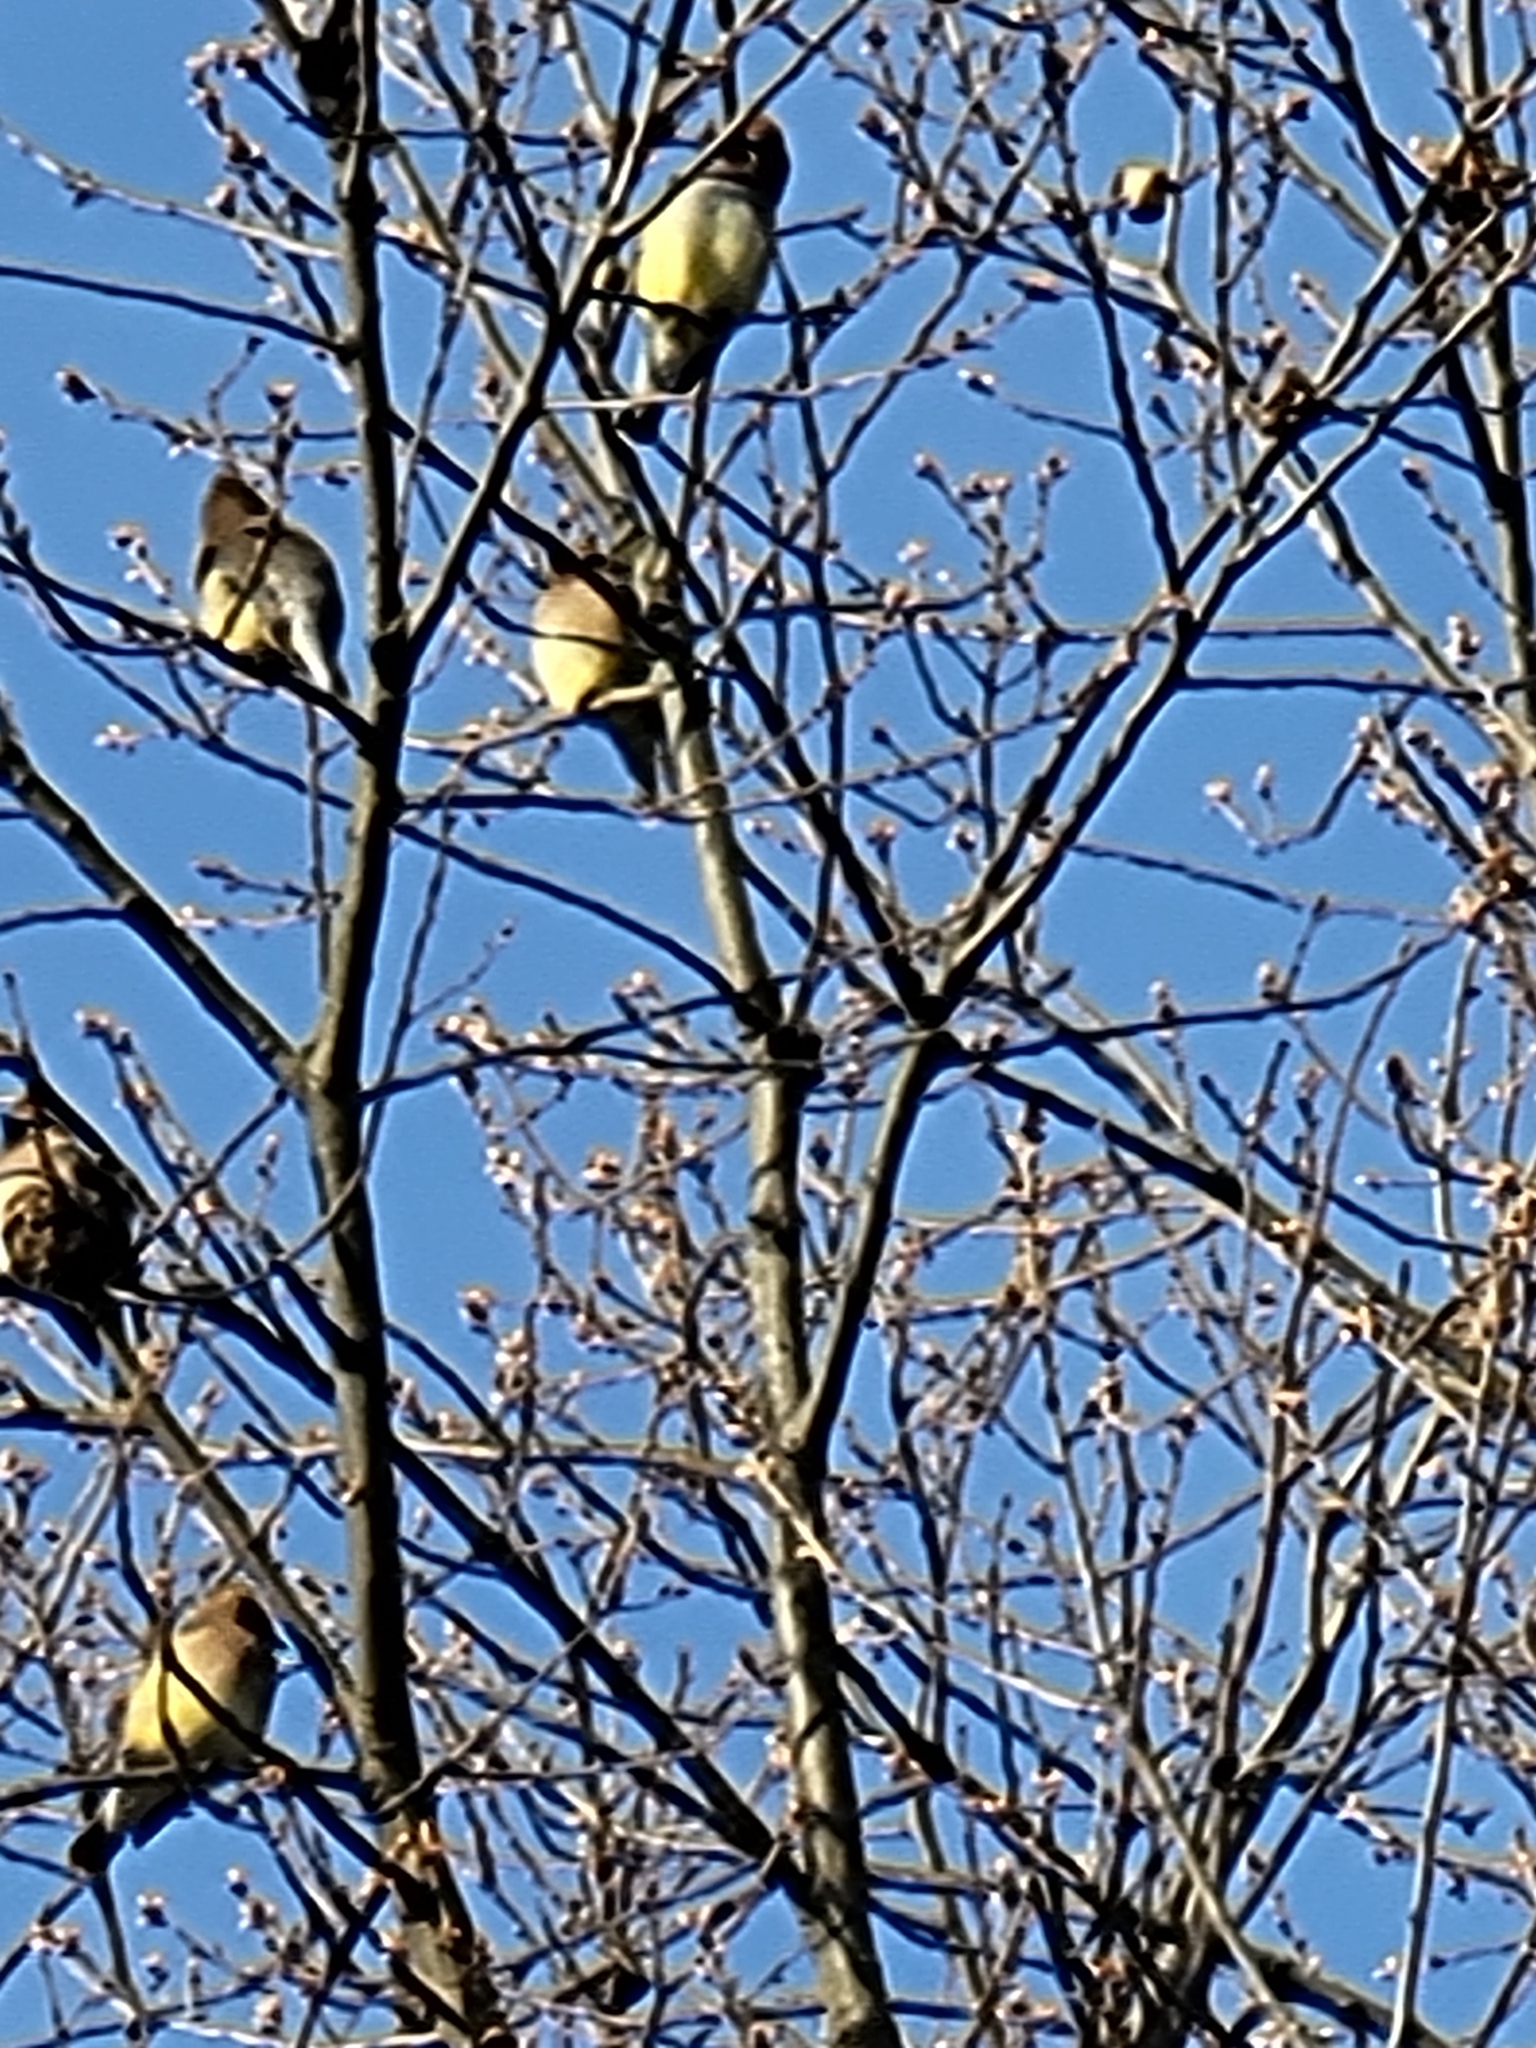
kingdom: Animalia
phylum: Chordata
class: Aves
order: Passeriformes
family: Bombycillidae
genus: Bombycilla
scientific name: Bombycilla cedrorum
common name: Cedar waxwing
